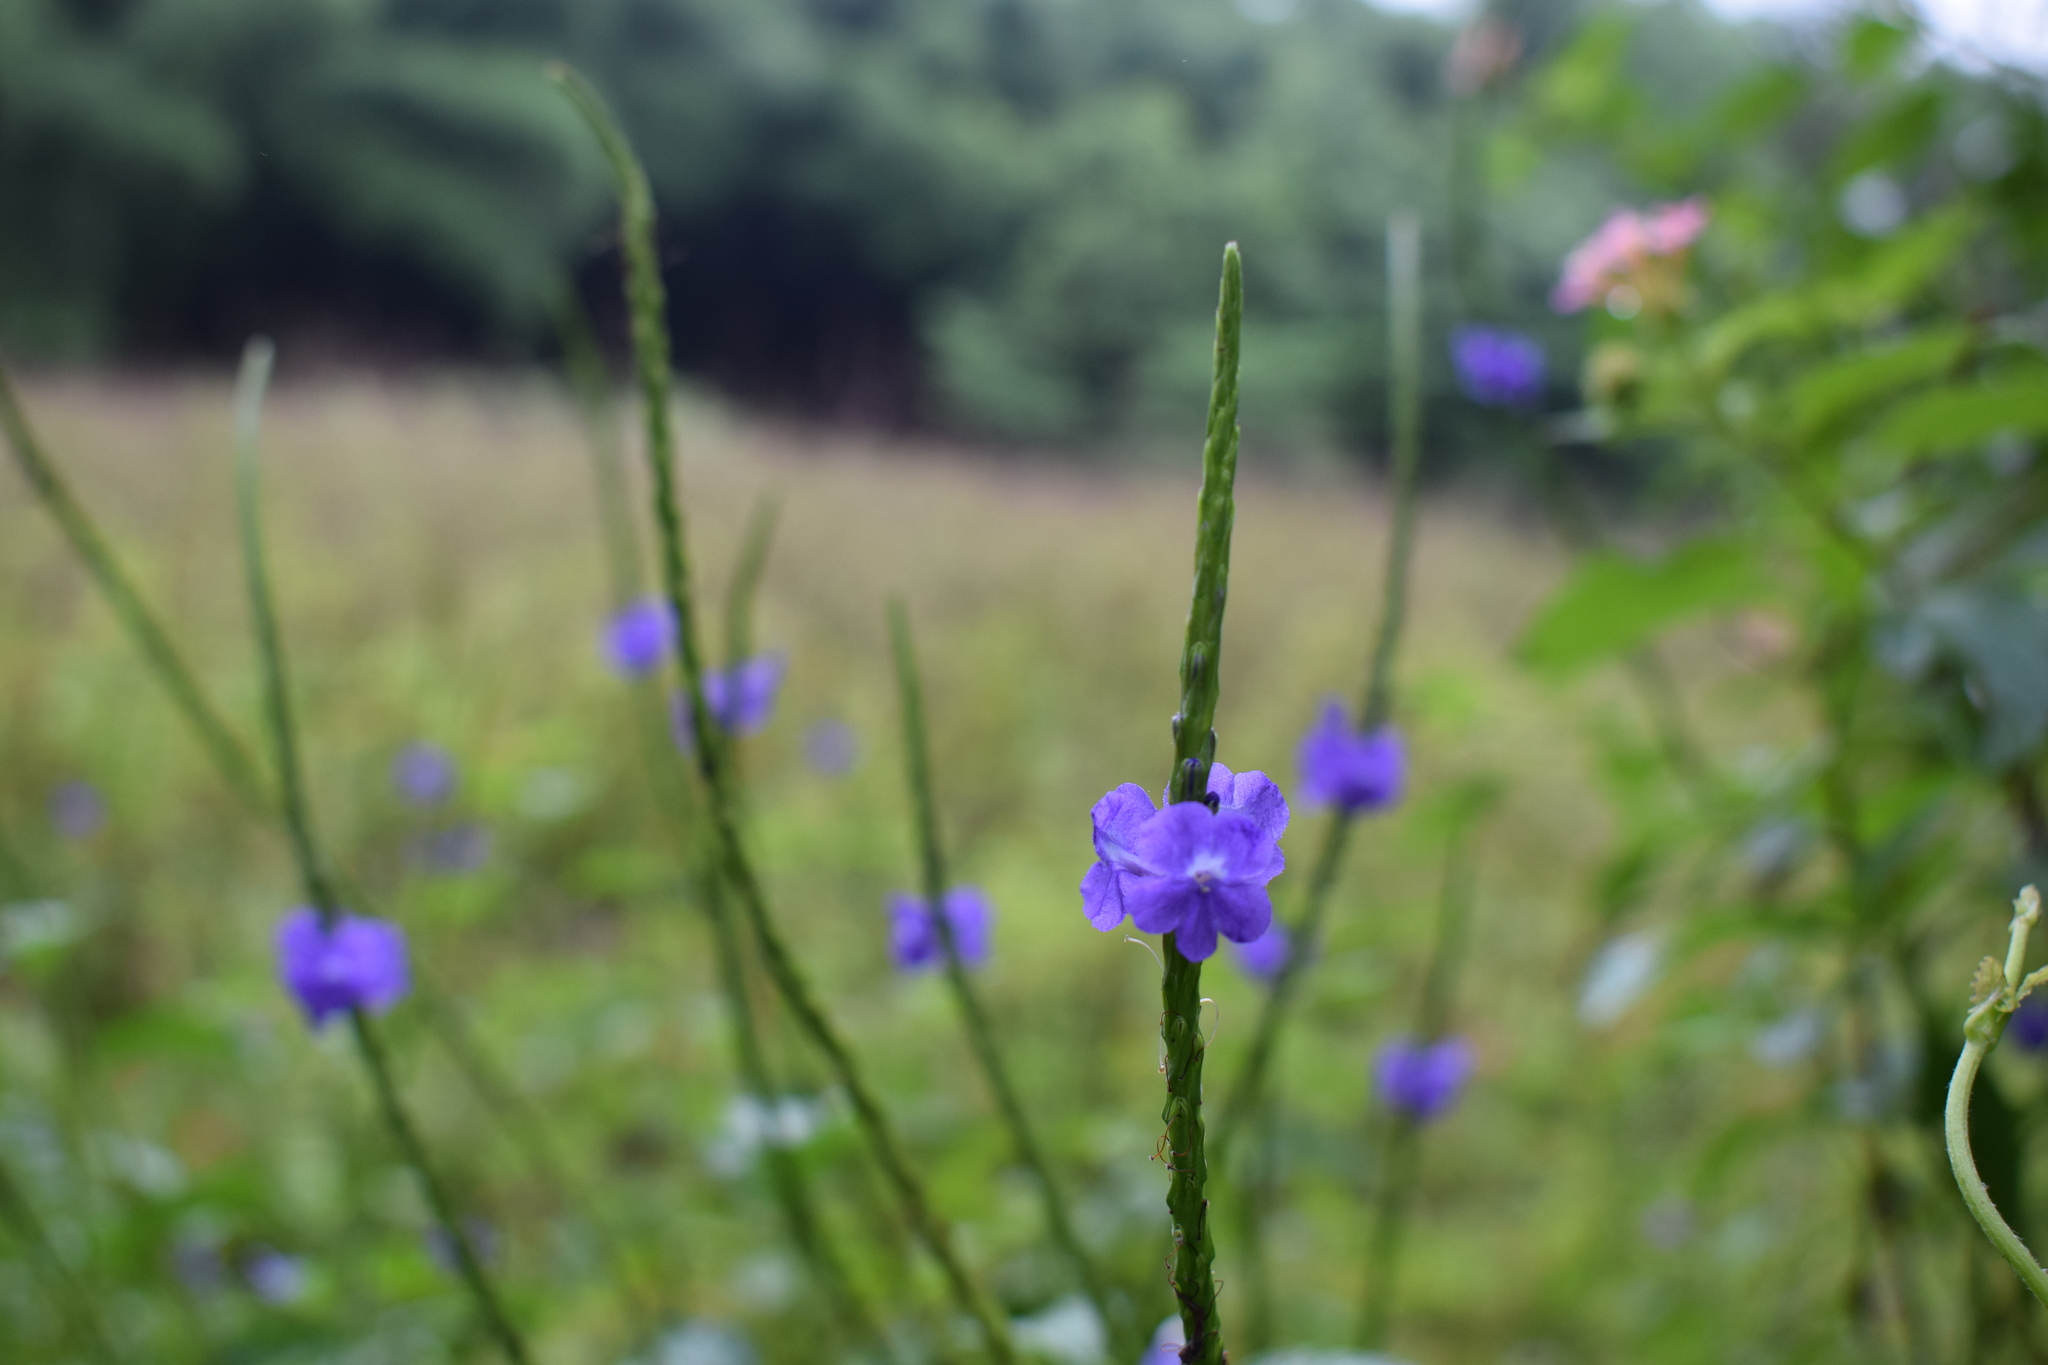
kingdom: Plantae
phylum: Tracheophyta
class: Magnoliopsida
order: Lamiales
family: Verbenaceae
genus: Stachytarpheta
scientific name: Stachytarpheta jamaicensis
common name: Light-blue snakeweed
